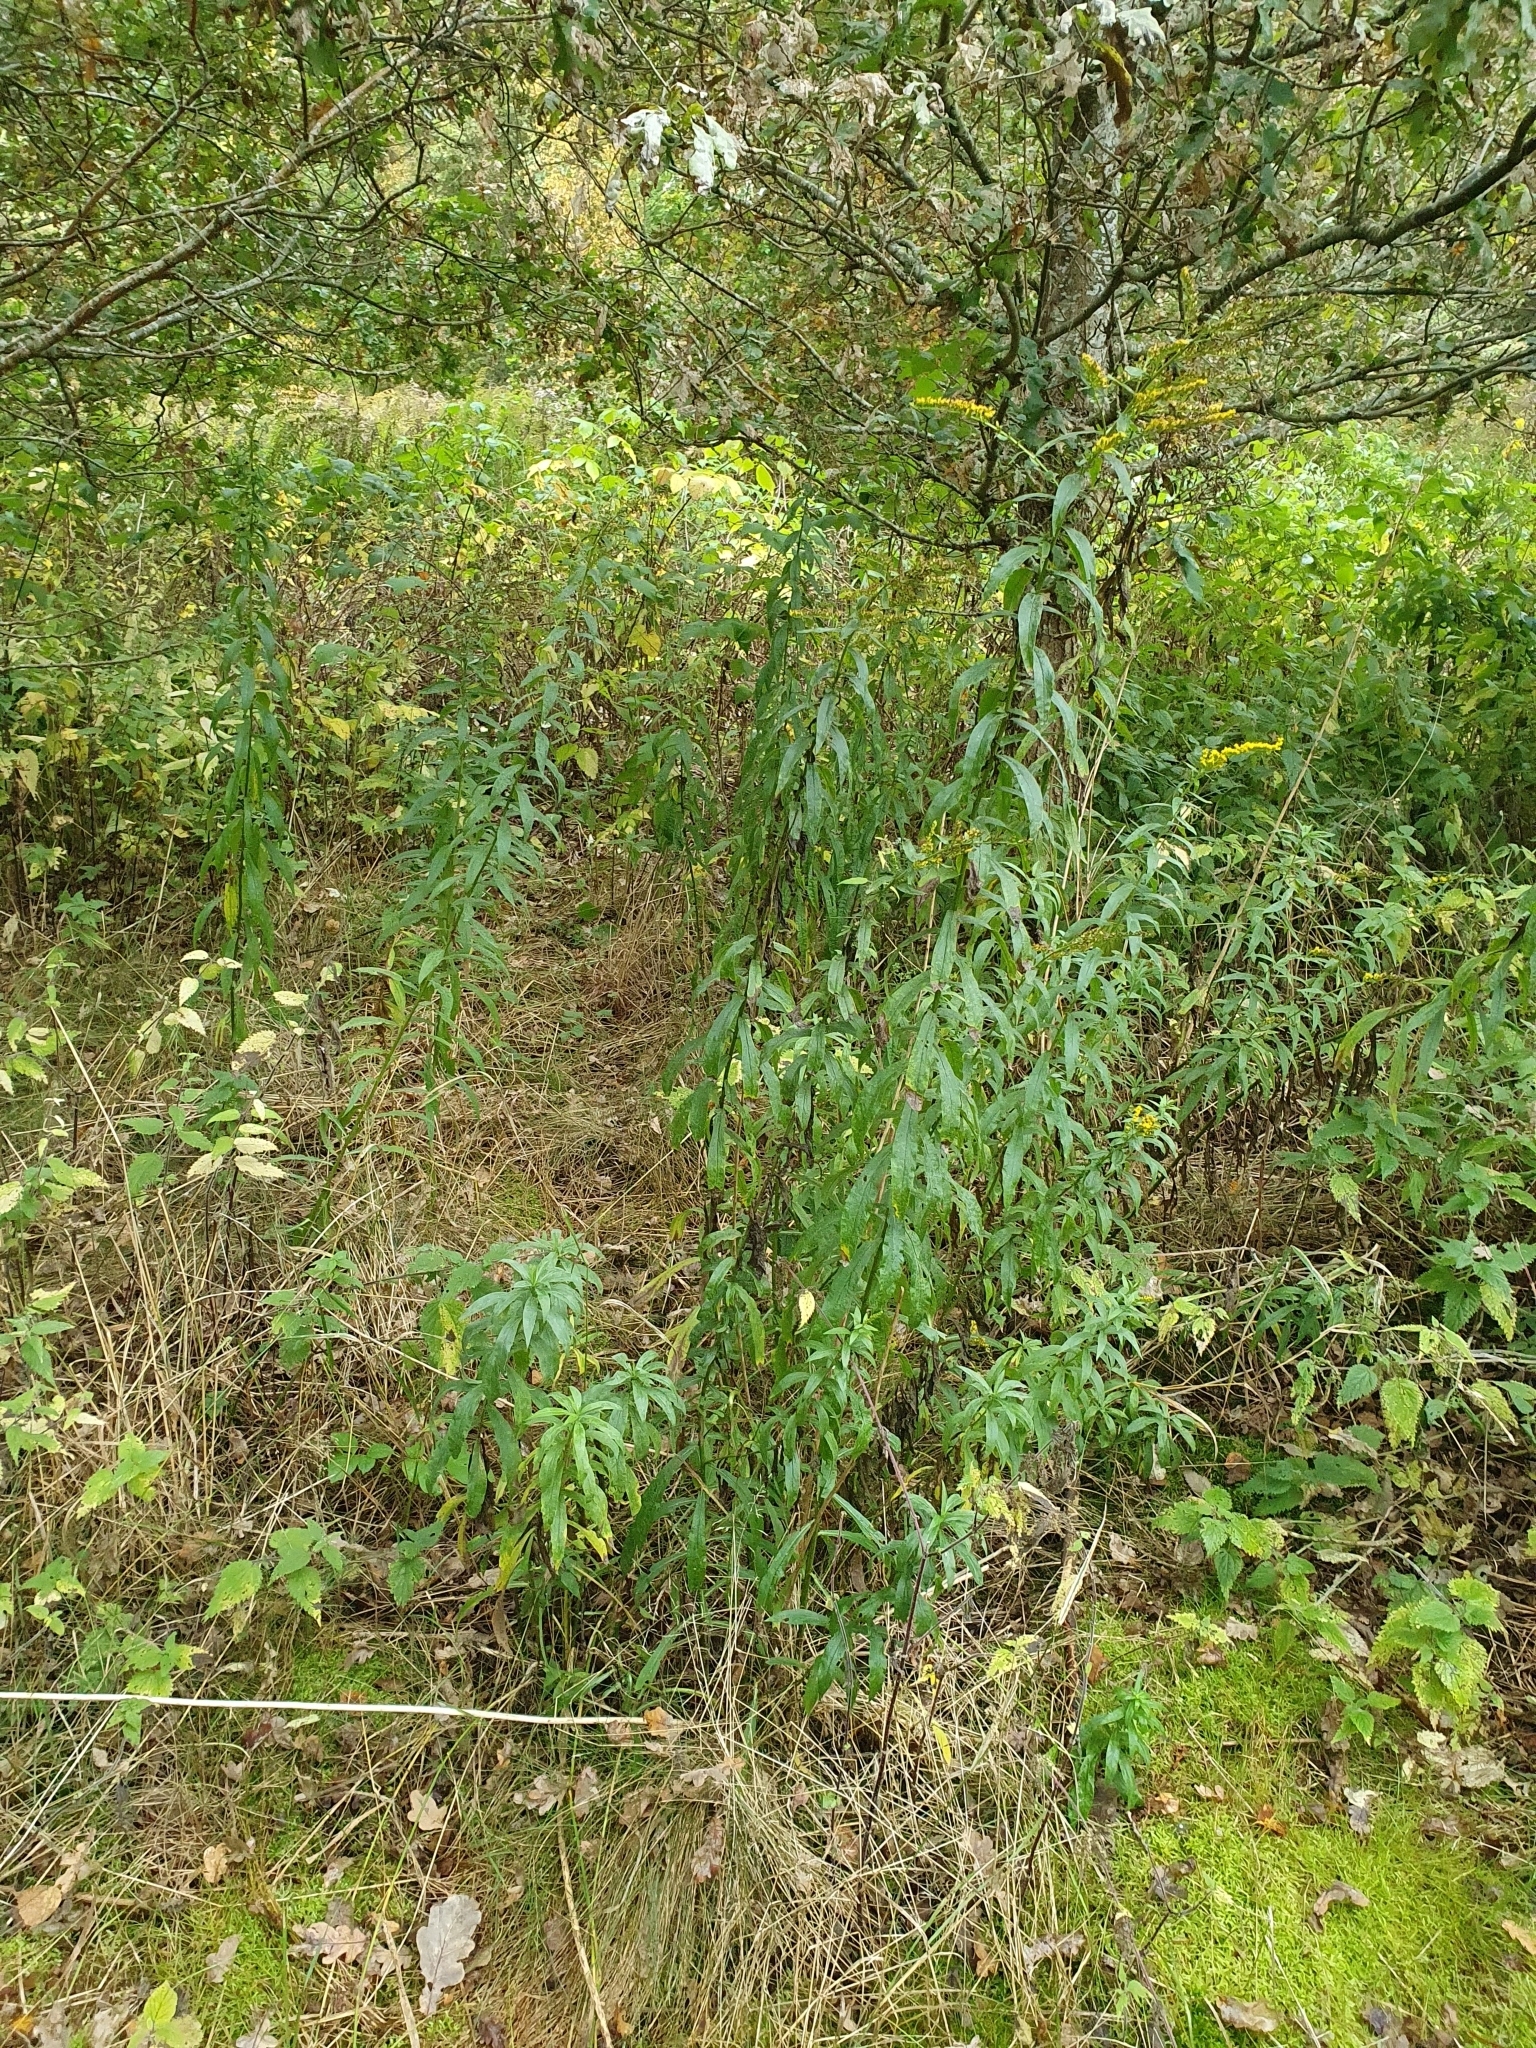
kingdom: Plantae
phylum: Tracheophyta
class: Magnoliopsida
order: Asterales
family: Asteraceae
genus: Solidago
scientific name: Solidago canadensis
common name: Canada goldenrod
